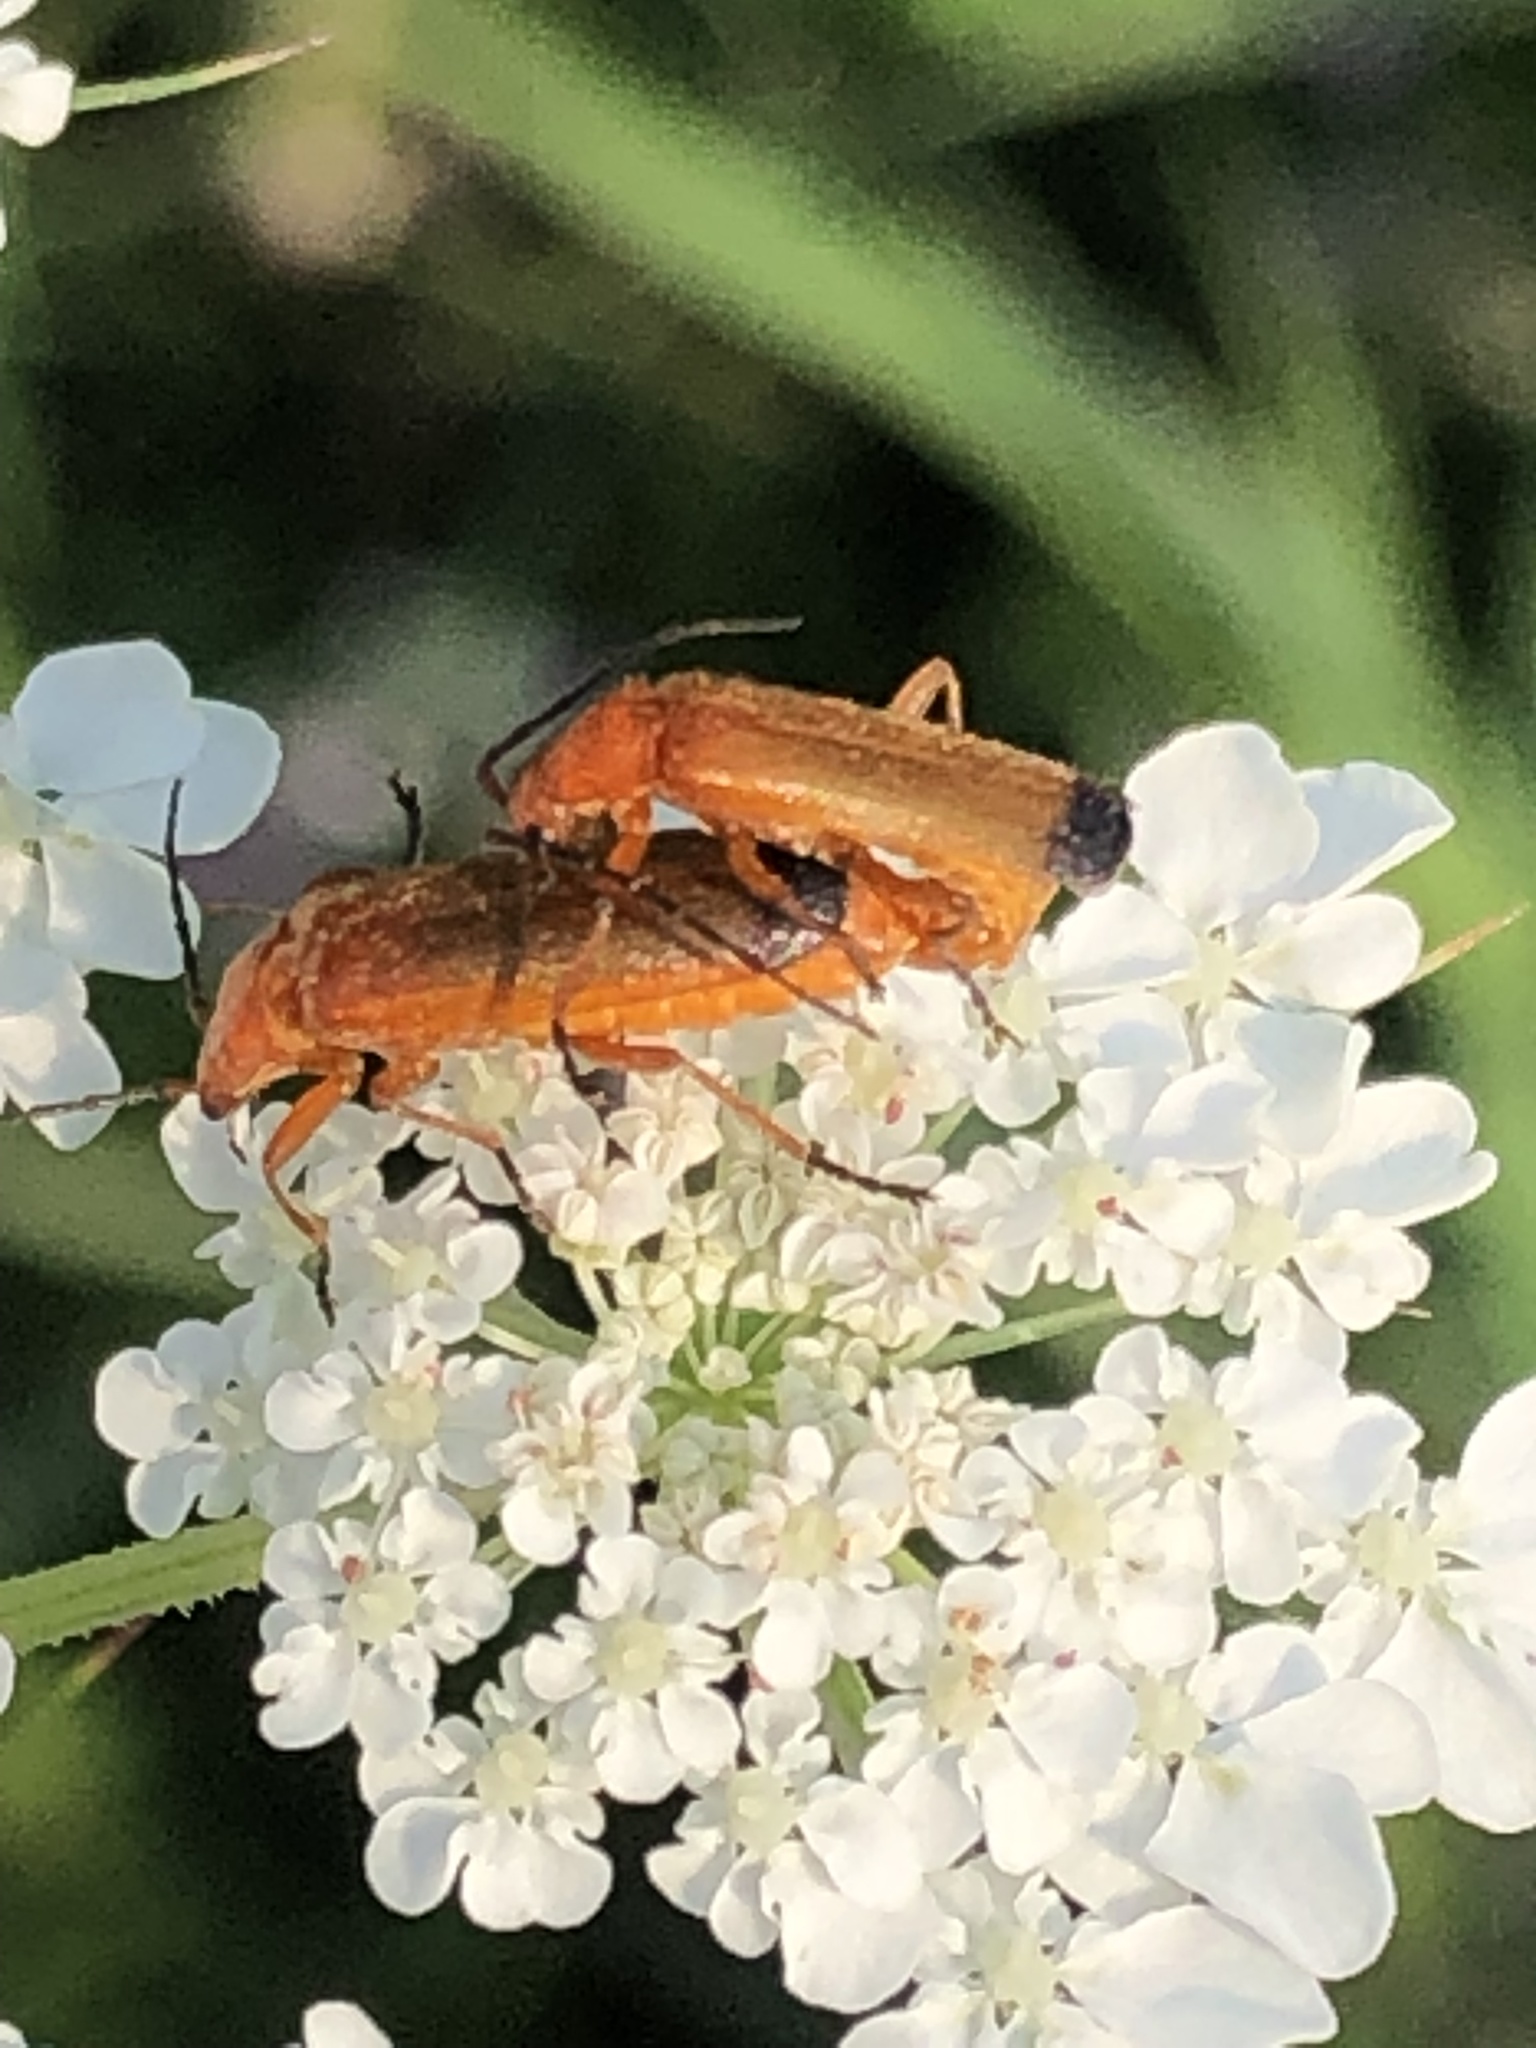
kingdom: Animalia
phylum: Arthropoda
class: Insecta
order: Coleoptera
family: Cantharidae
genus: Rhagonycha
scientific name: Rhagonycha fulva
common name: Common red soldier beetle
